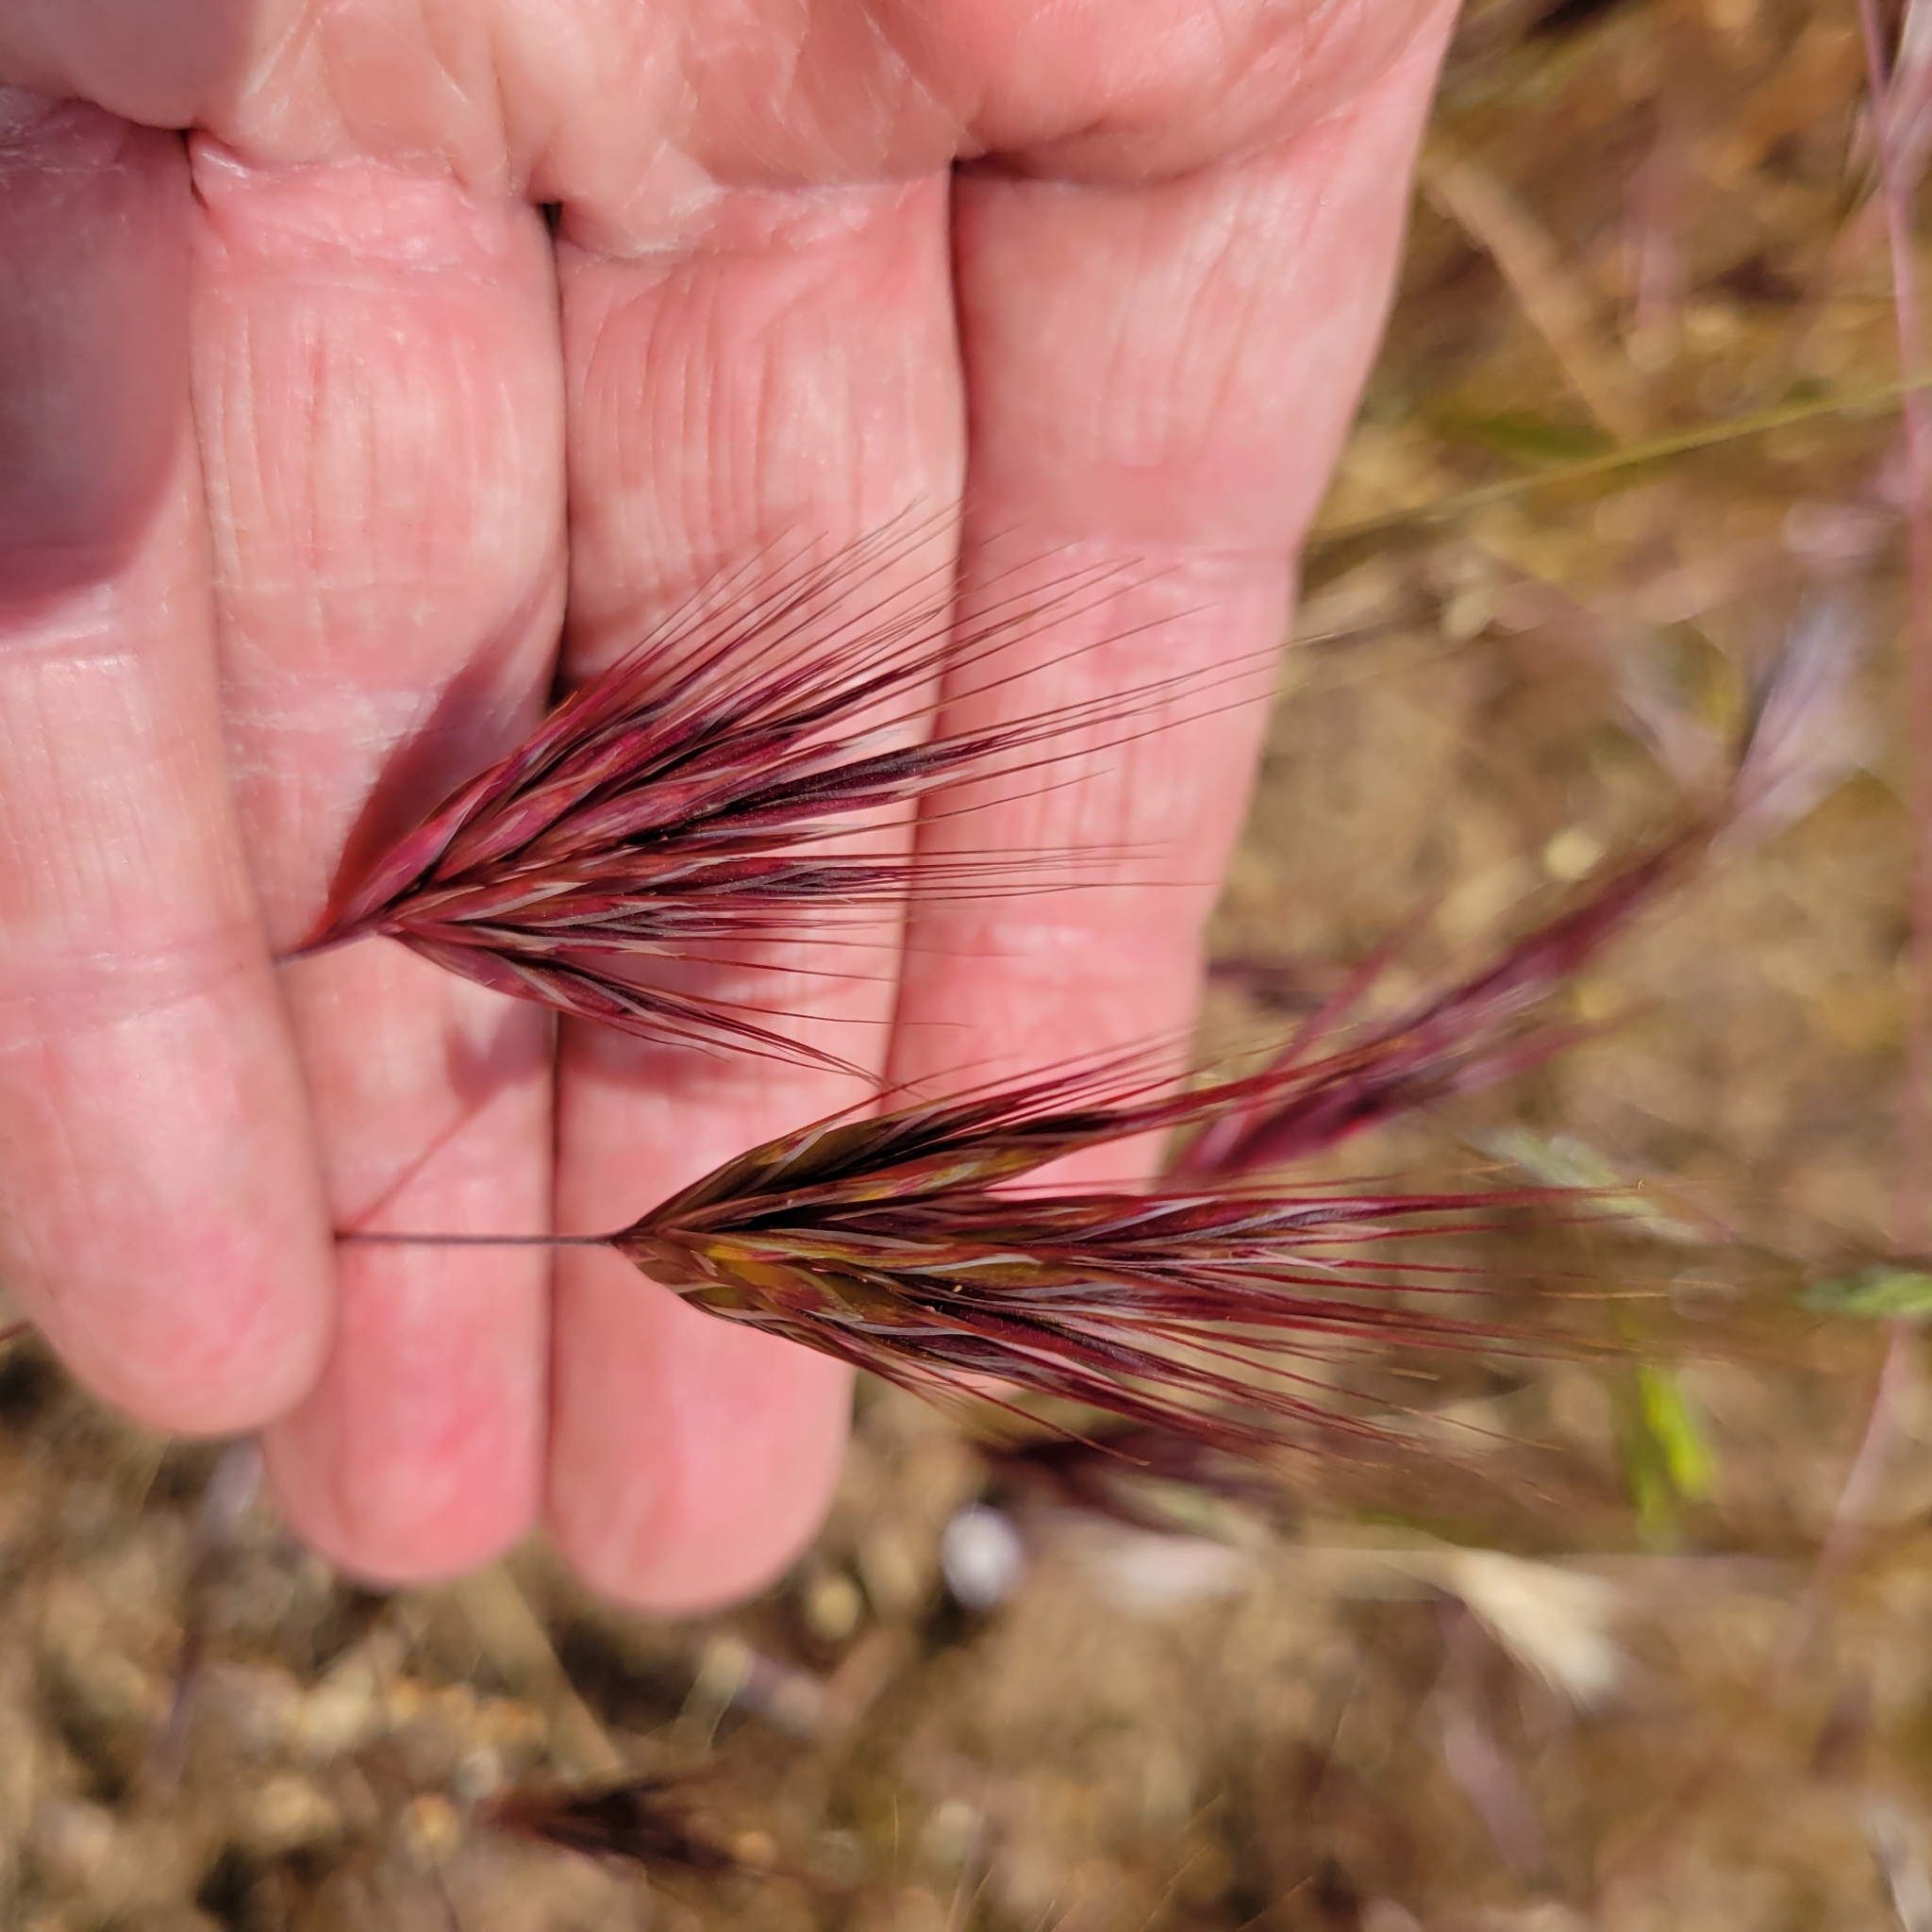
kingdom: Plantae
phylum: Tracheophyta
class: Liliopsida
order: Poales
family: Poaceae
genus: Bromus
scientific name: Bromus rubens
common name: Red brome
